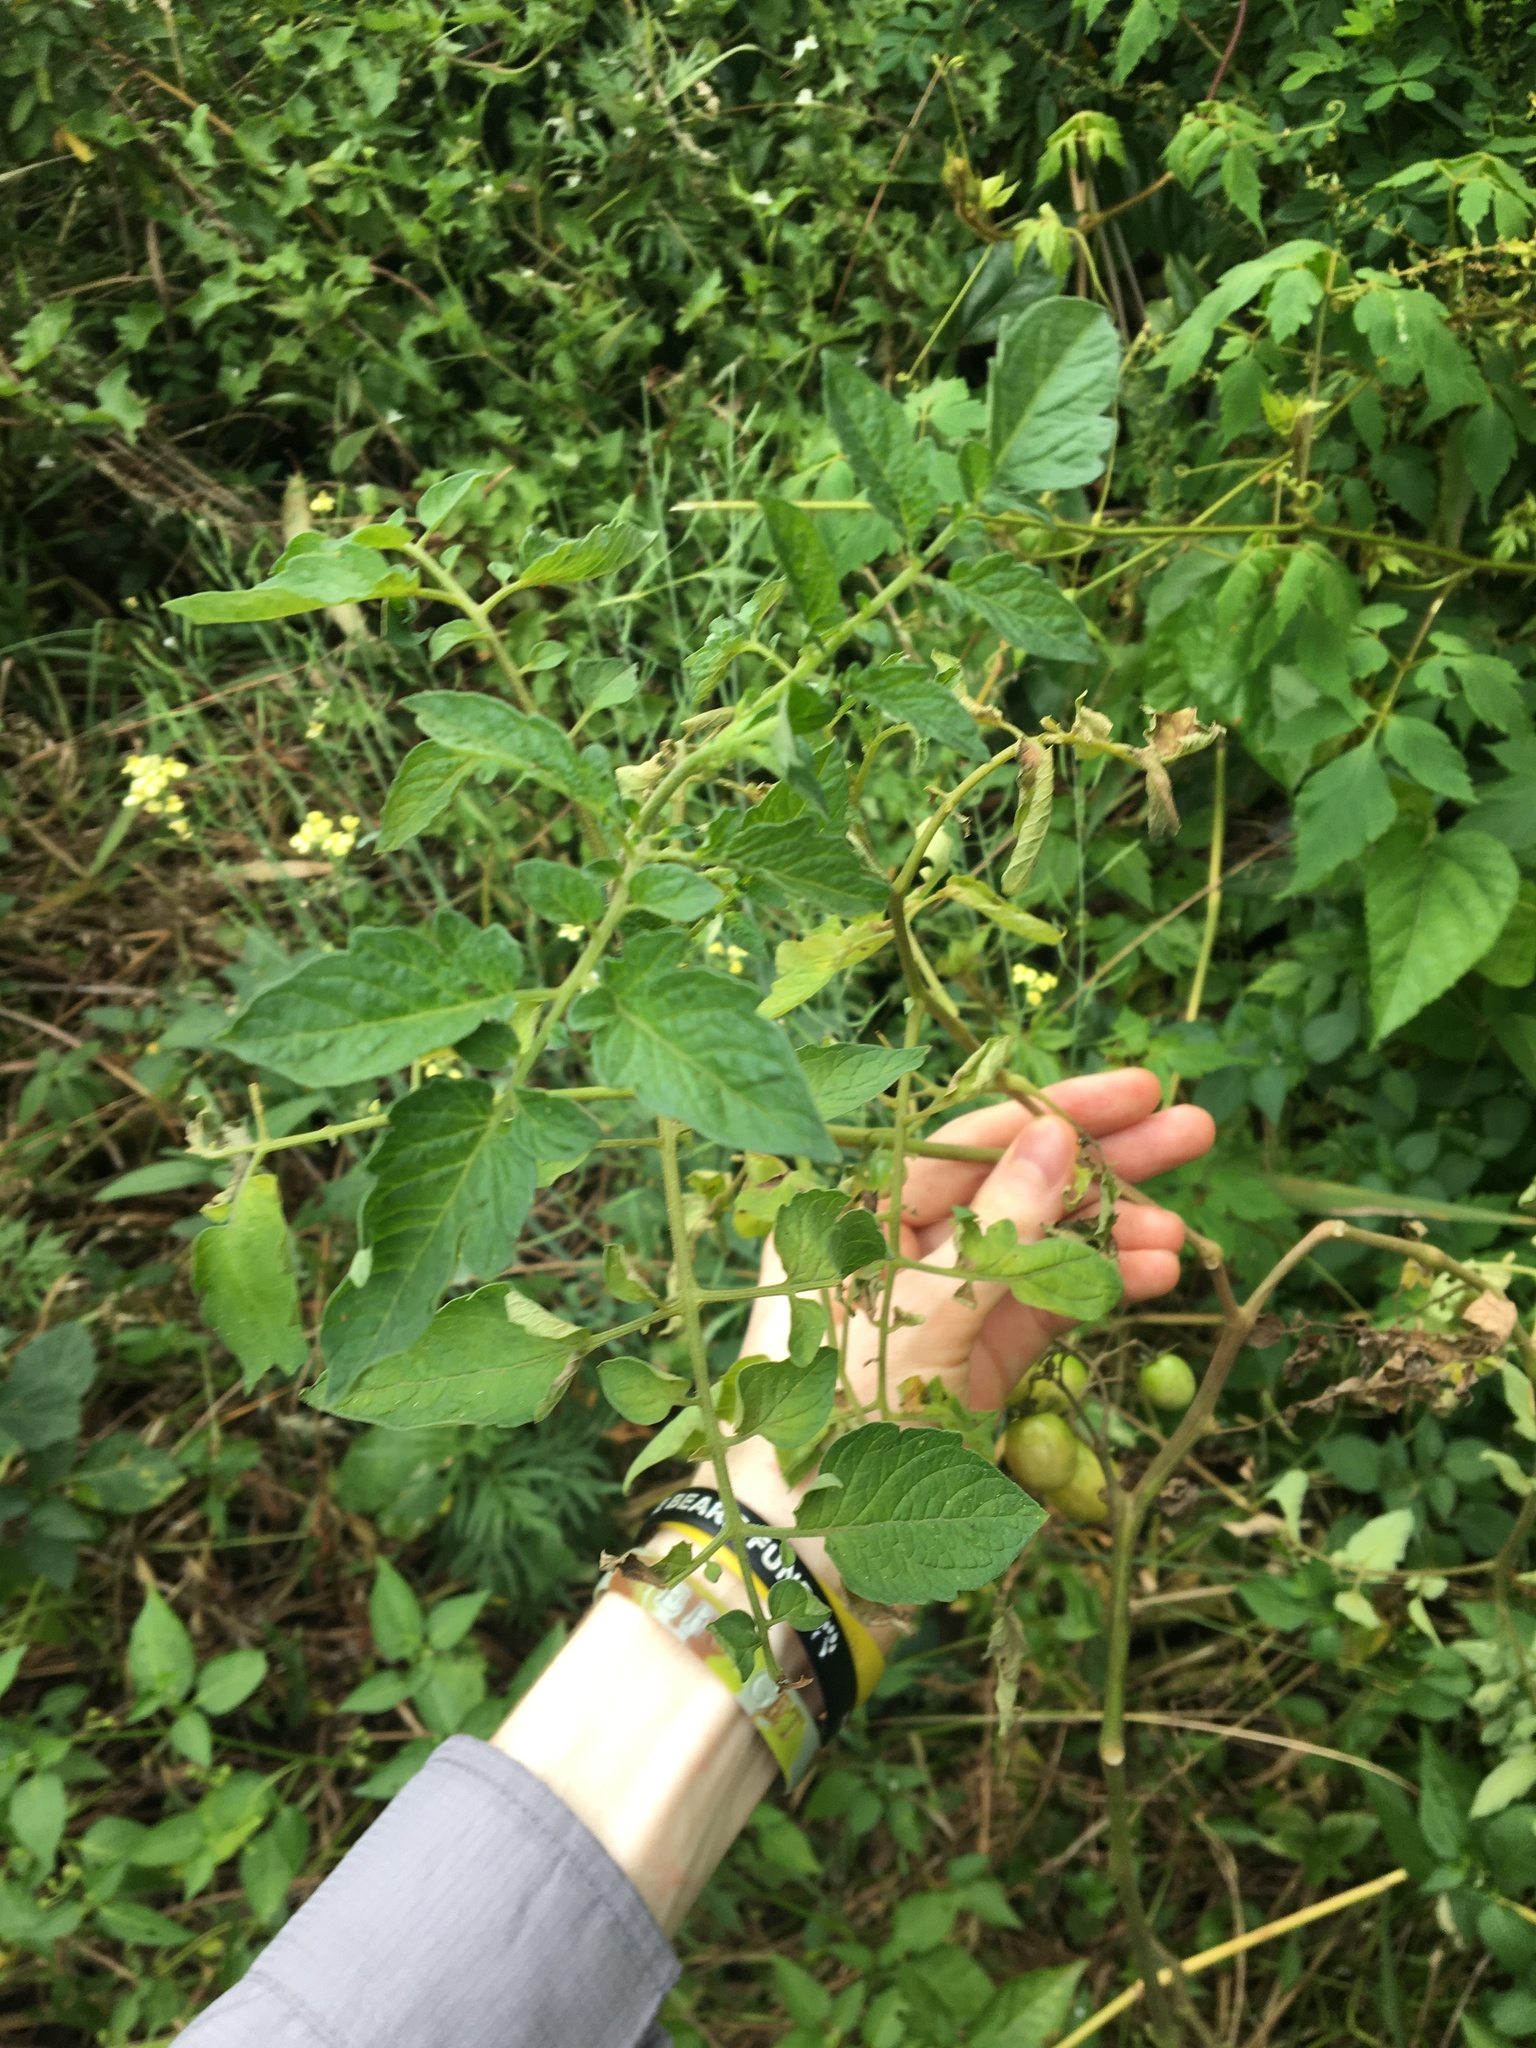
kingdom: Plantae
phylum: Tracheophyta
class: Magnoliopsida
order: Solanales
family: Solanaceae
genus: Solanum
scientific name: Solanum lycopersicum
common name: Garden tomato
